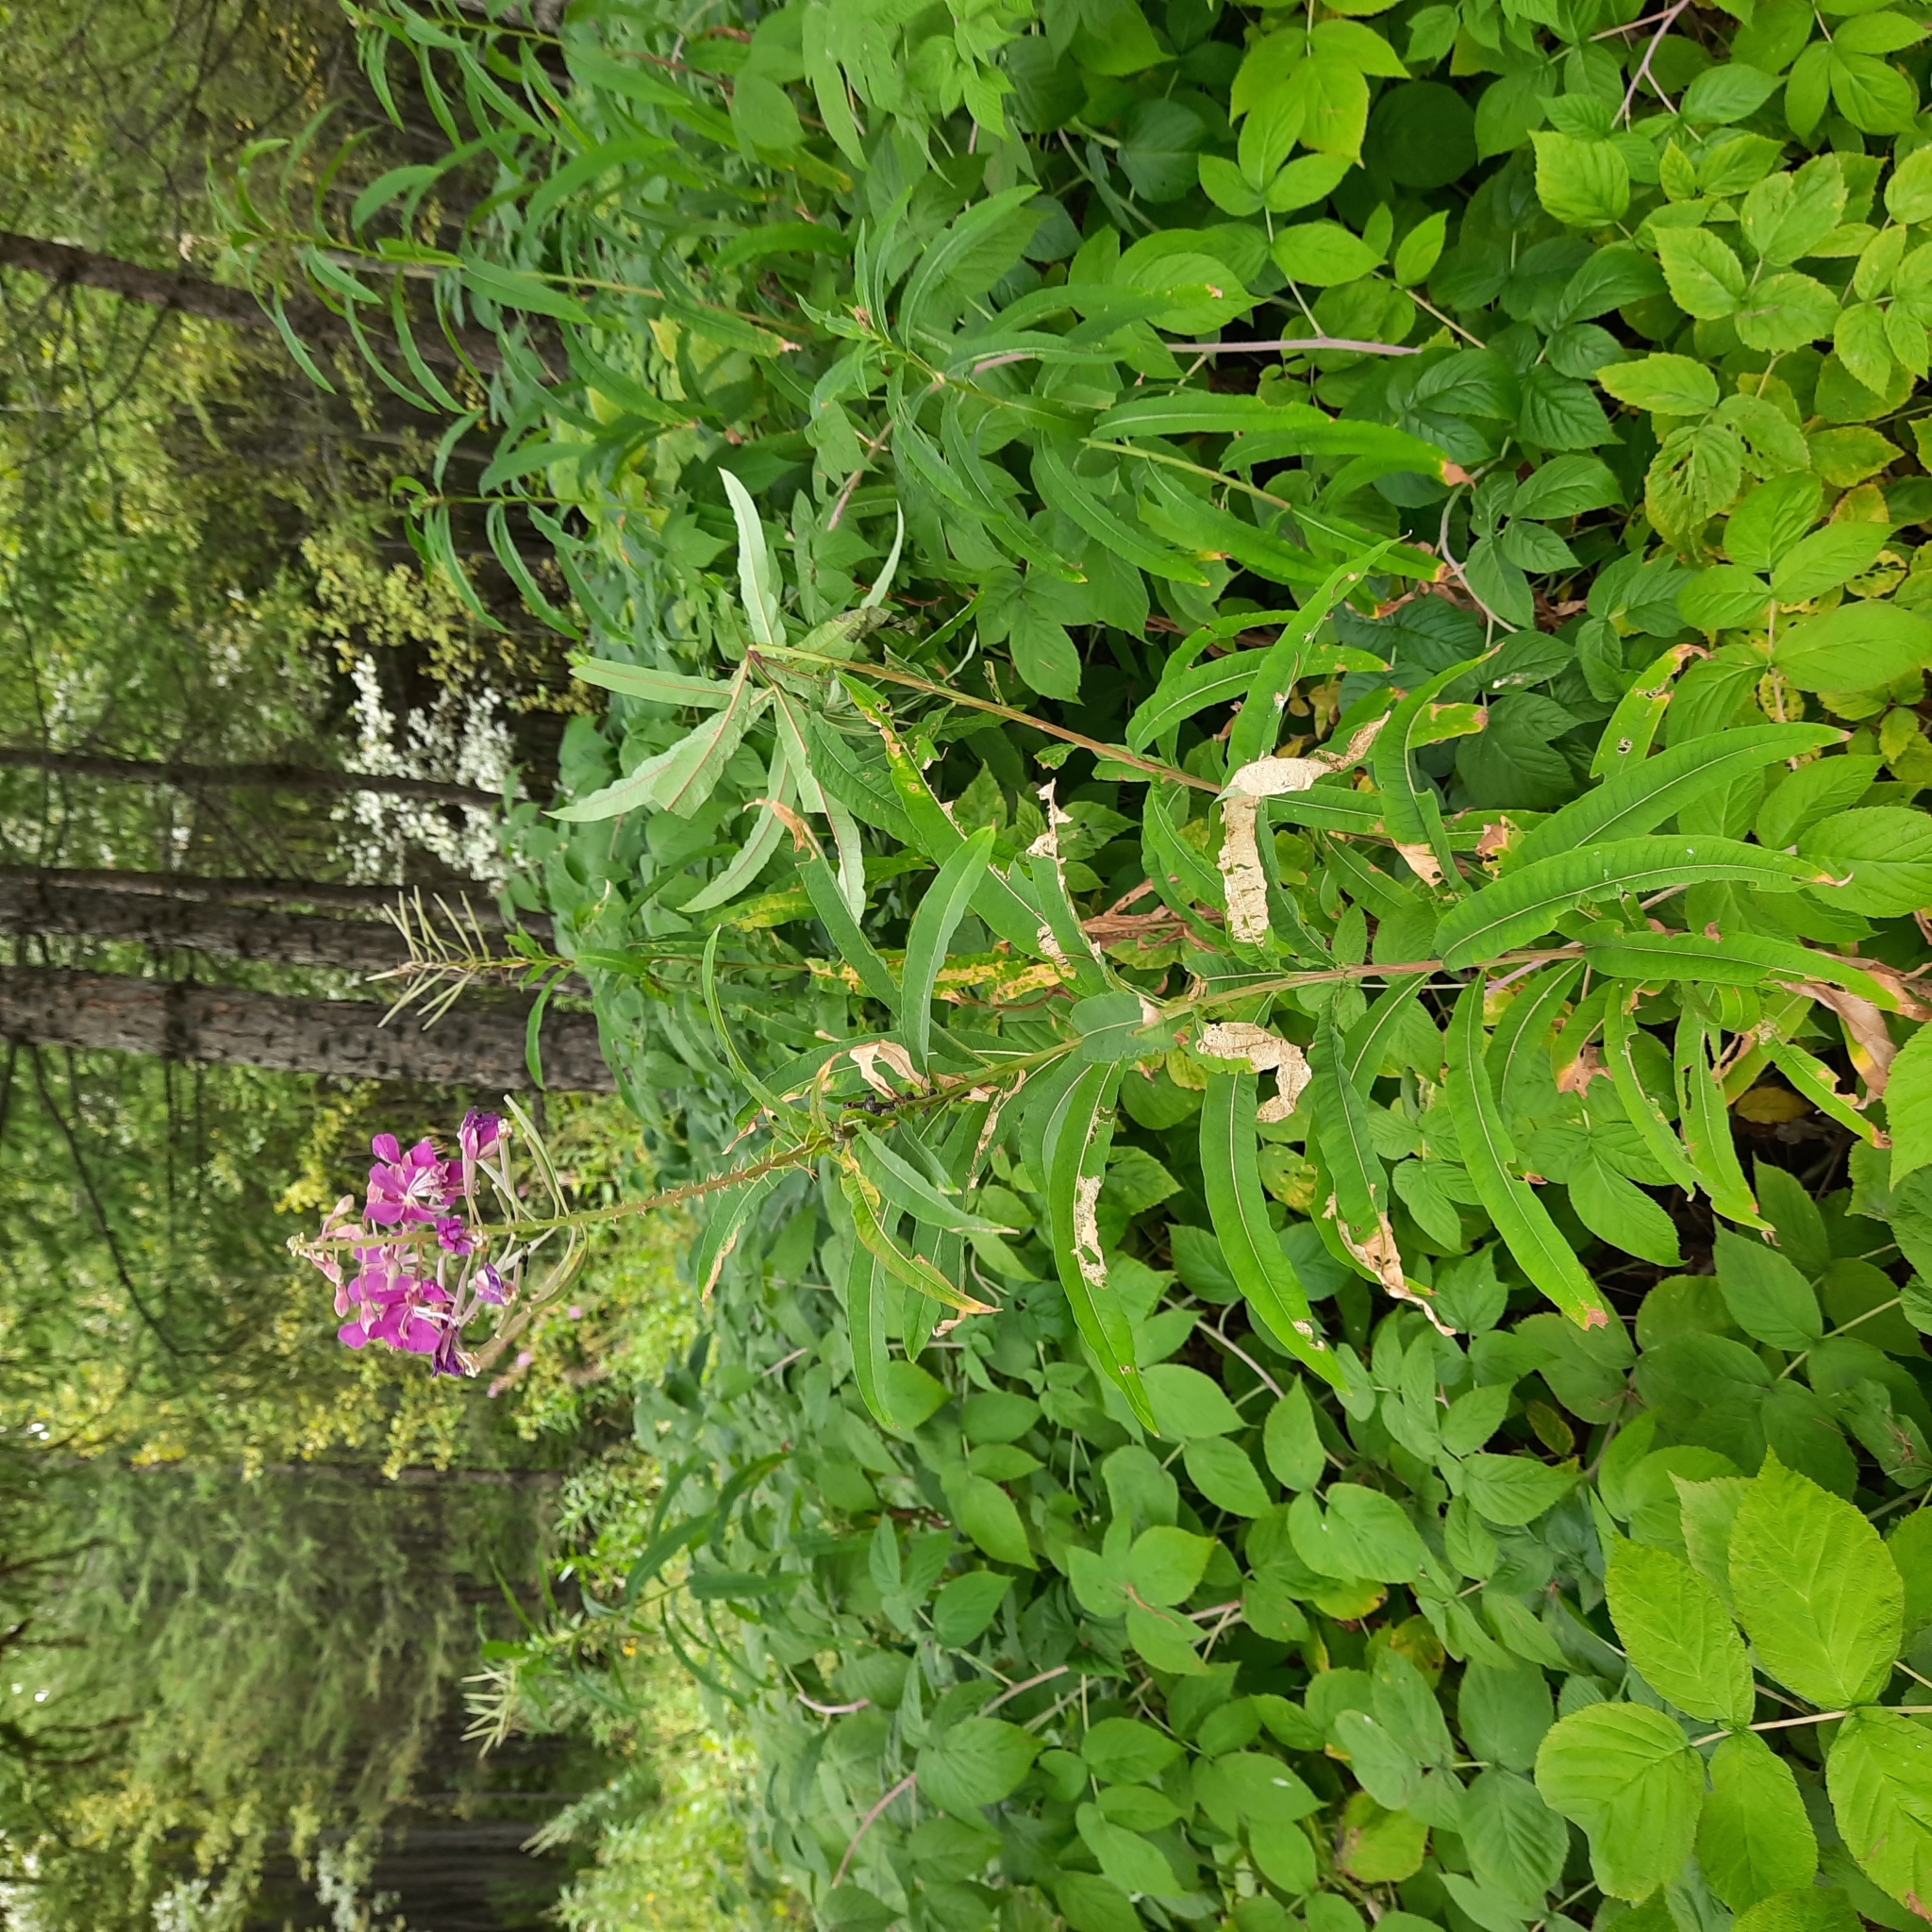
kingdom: Plantae
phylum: Tracheophyta
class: Magnoliopsida
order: Myrtales
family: Onagraceae
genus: Chamaenerion
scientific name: Chamaenerion angustifolium
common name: Fireweed
